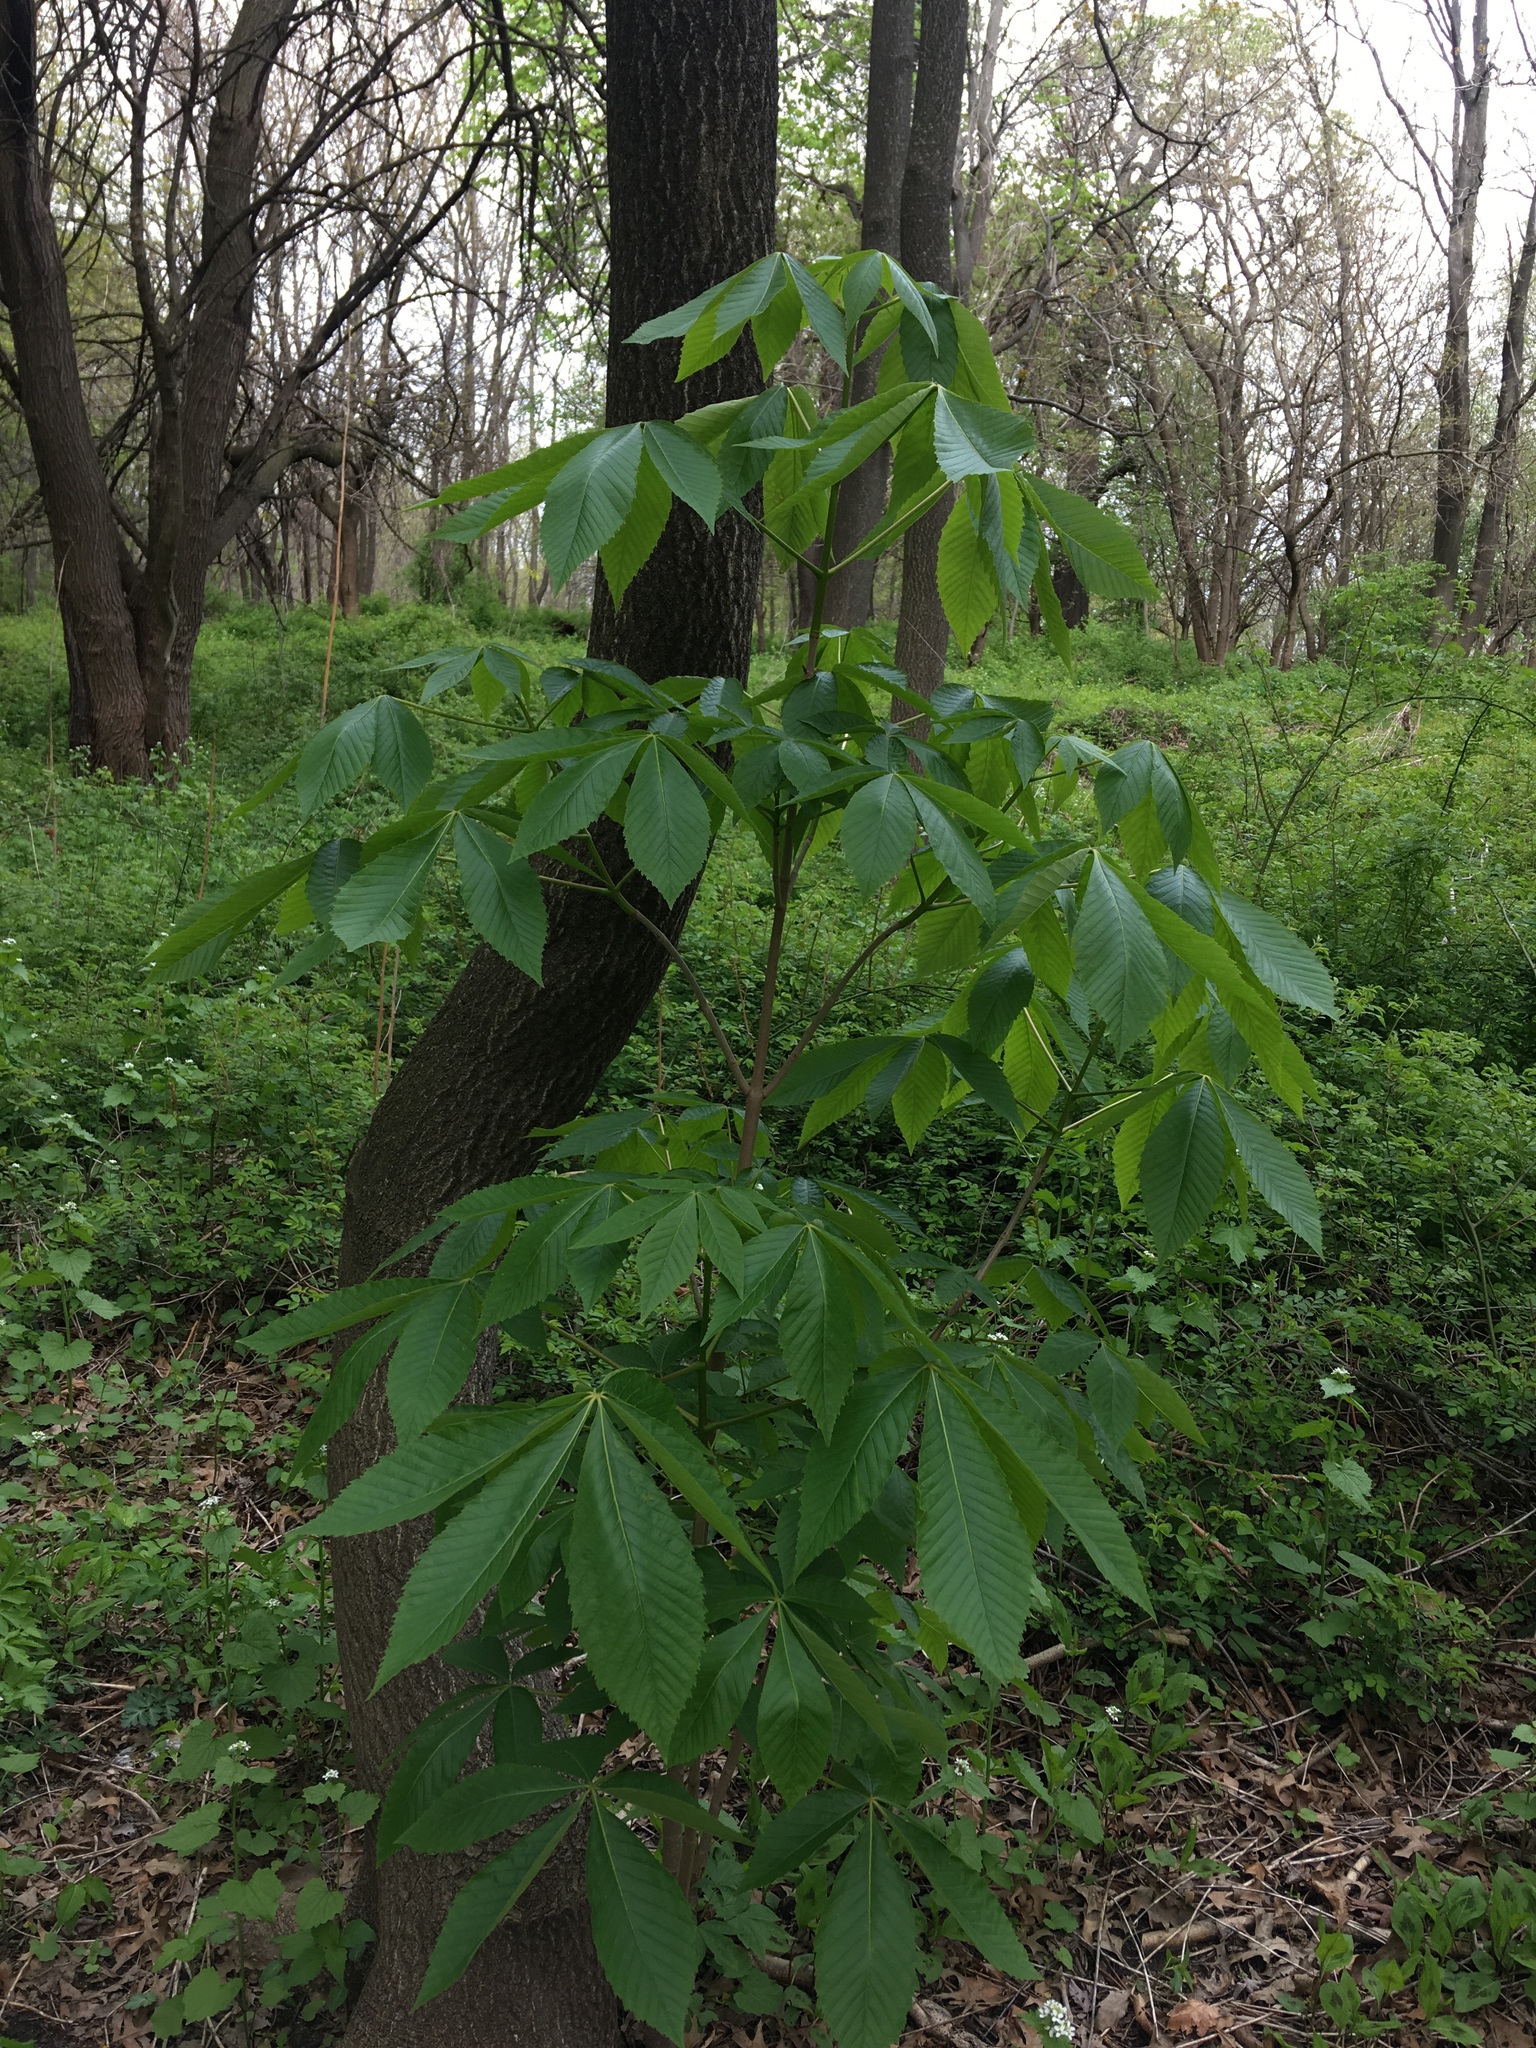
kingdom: Plantae
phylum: Tracheophyta
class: Magnoliopsida
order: Sapindales
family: Sapindaceae
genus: Aesculus
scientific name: Aesculus glabra
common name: Ohio buckeye
